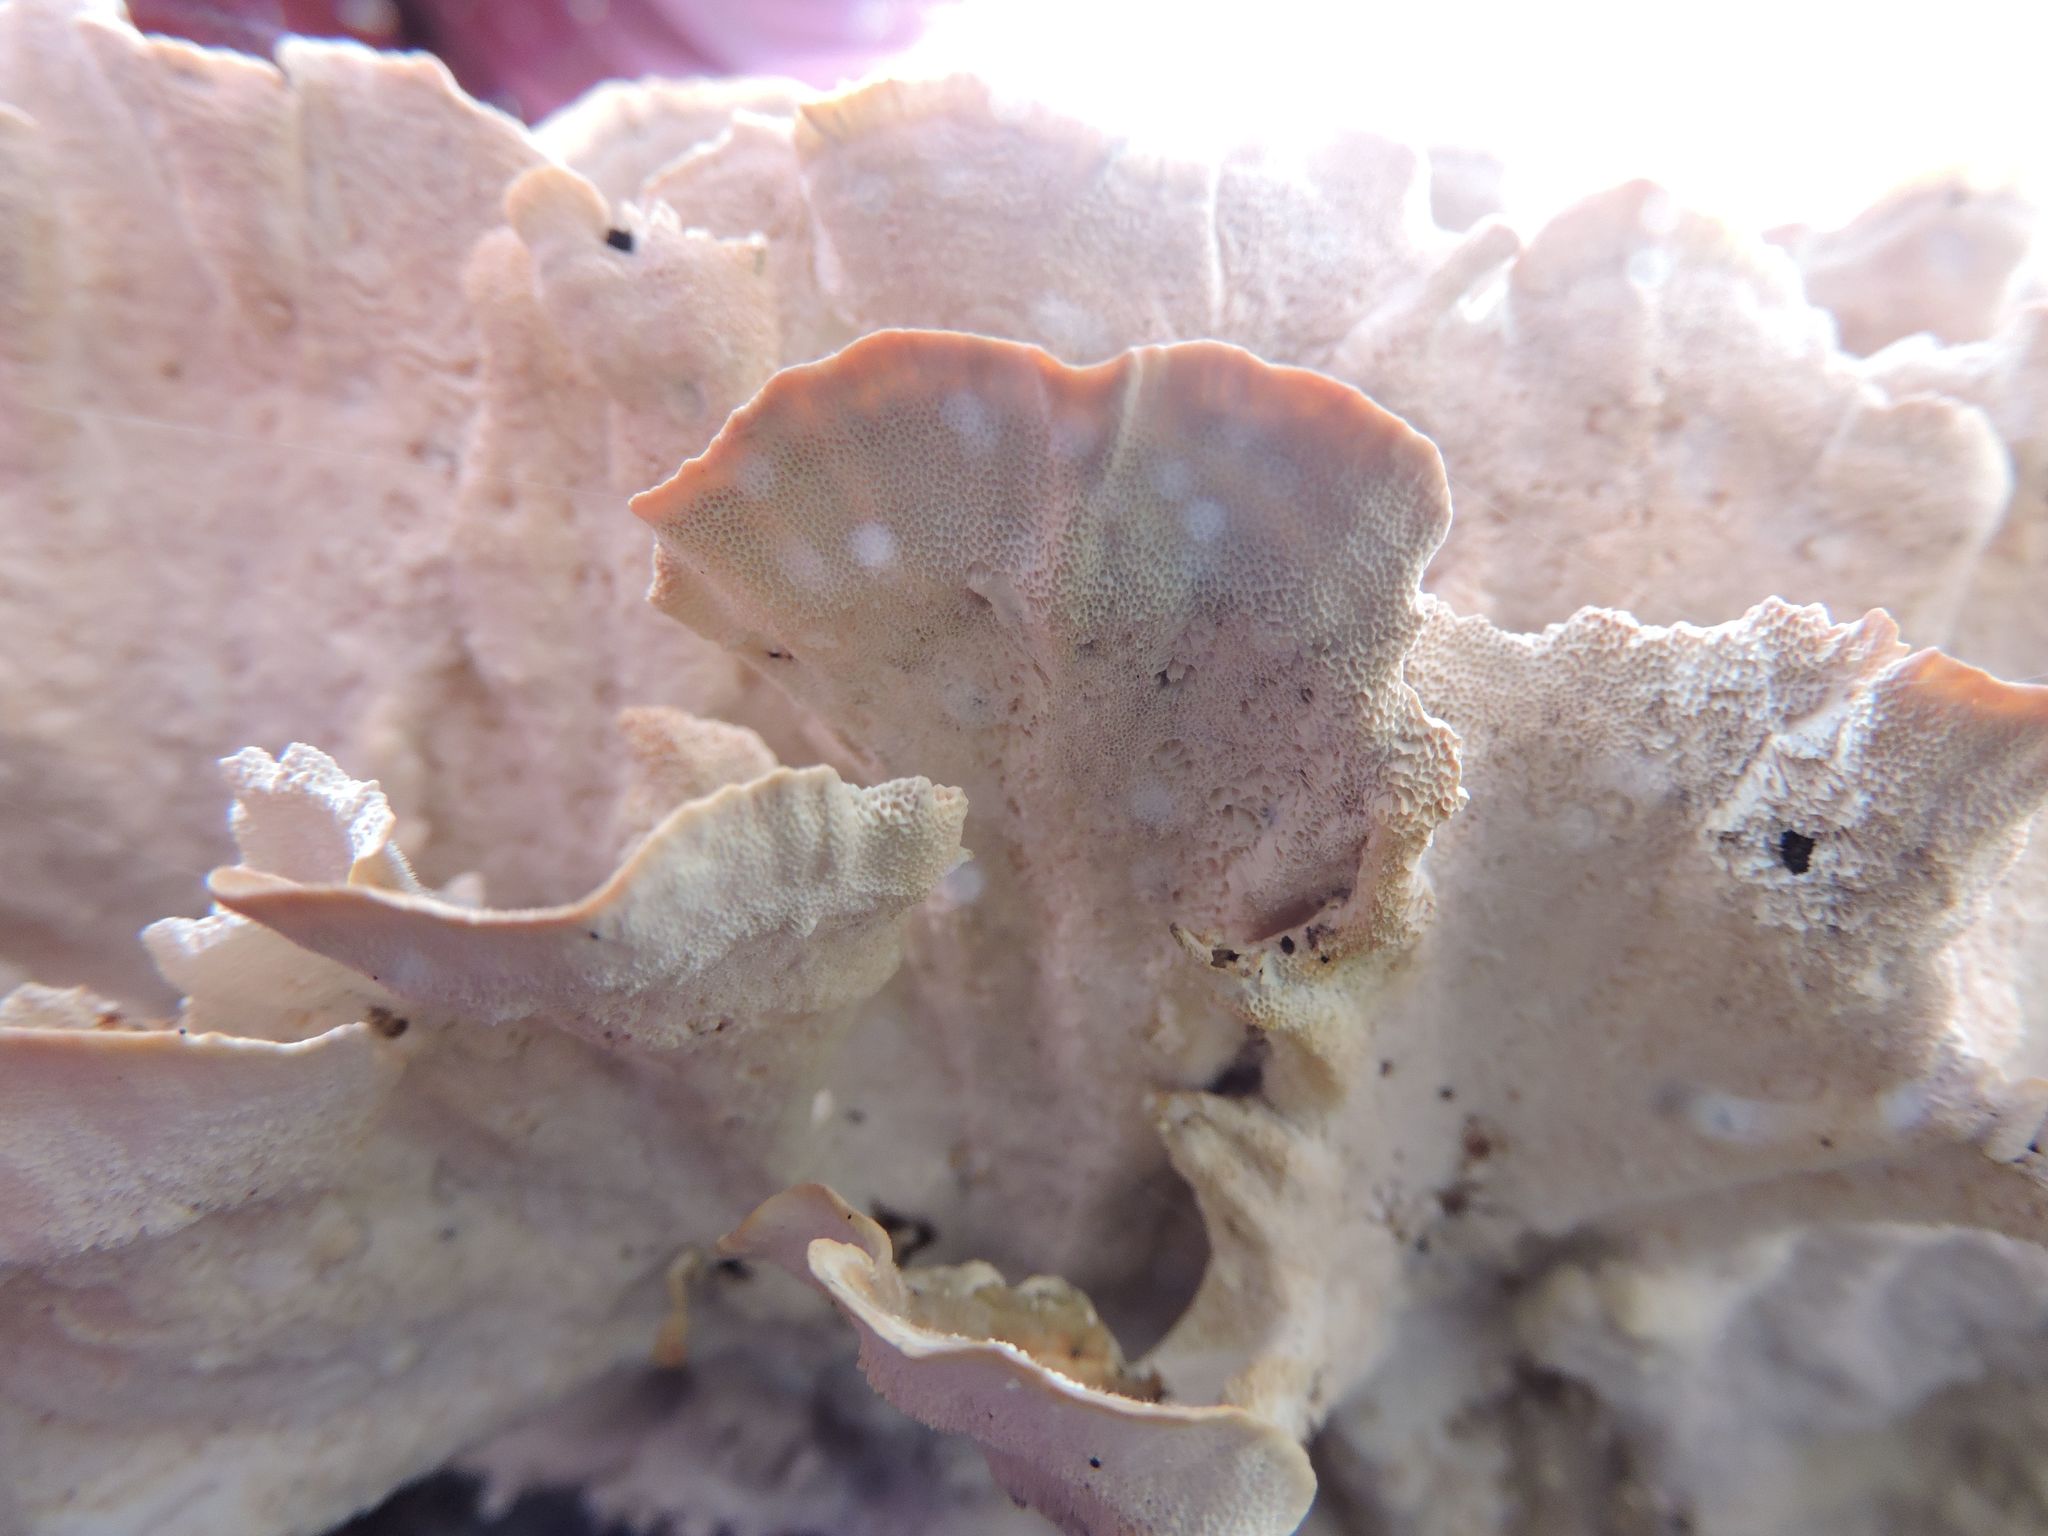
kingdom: Fungi
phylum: Basidiomycota
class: Agaricomycetes
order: Polyporales
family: Polyporaceae
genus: Trametes
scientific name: Trametes versicolor
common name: Turkeytail
